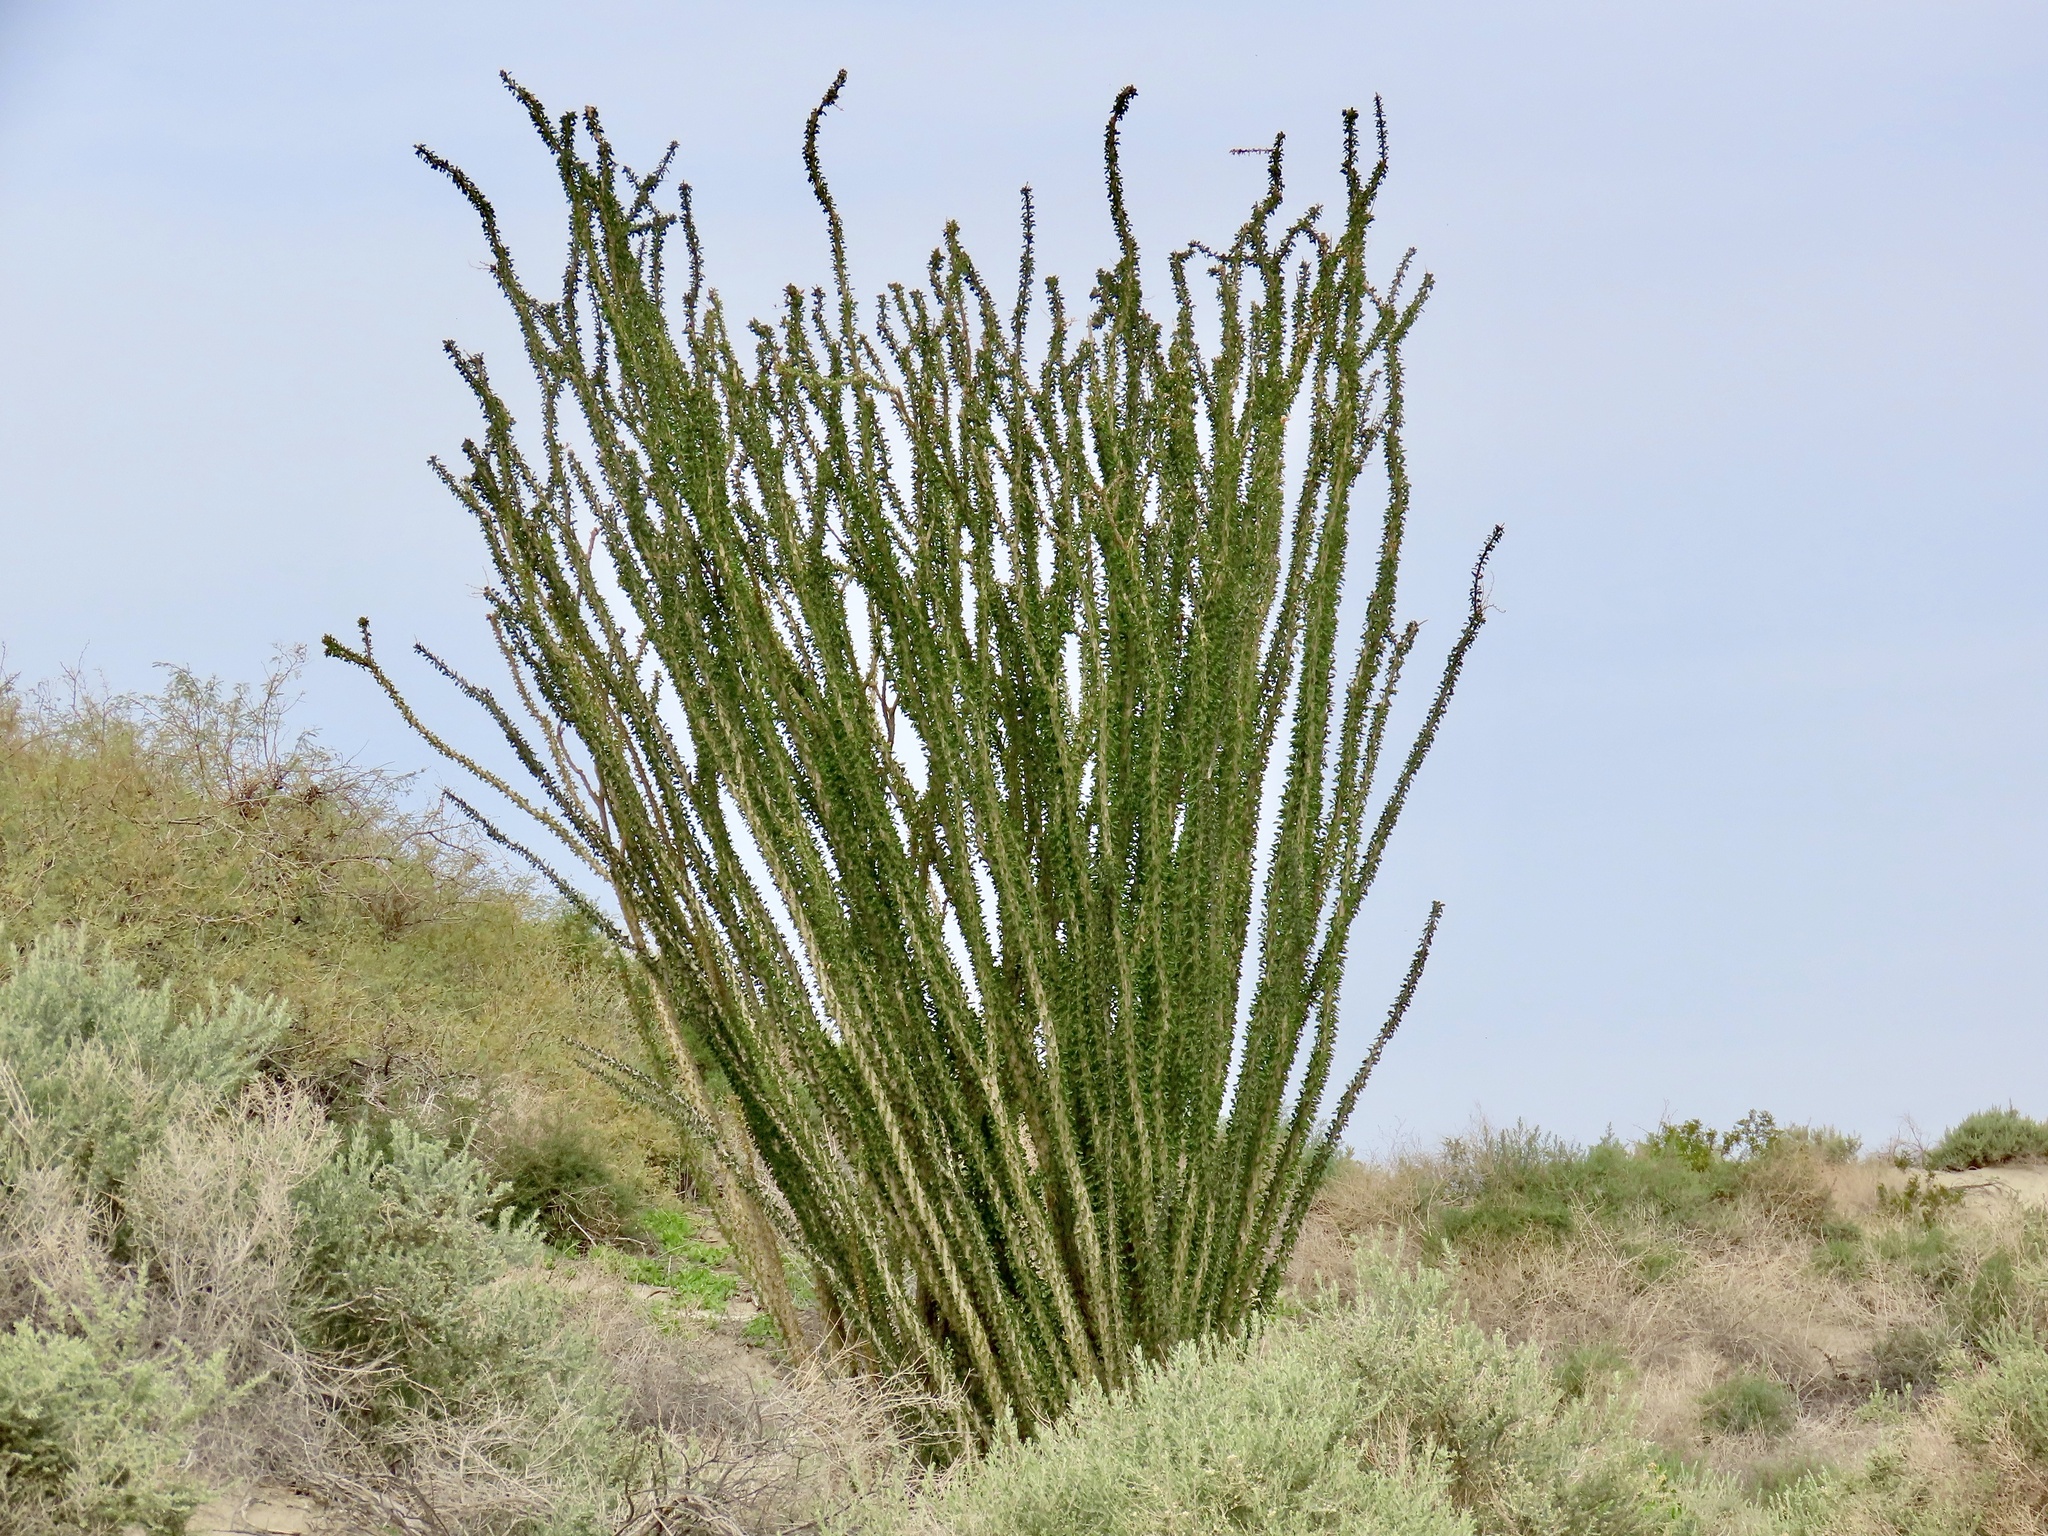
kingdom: Plantae
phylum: Tracheophyta
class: Magnoliopsida
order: Ericales
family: Fouquieriaceae
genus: Fouquieria
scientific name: Fouquieria splendens
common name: Vine-cactus
